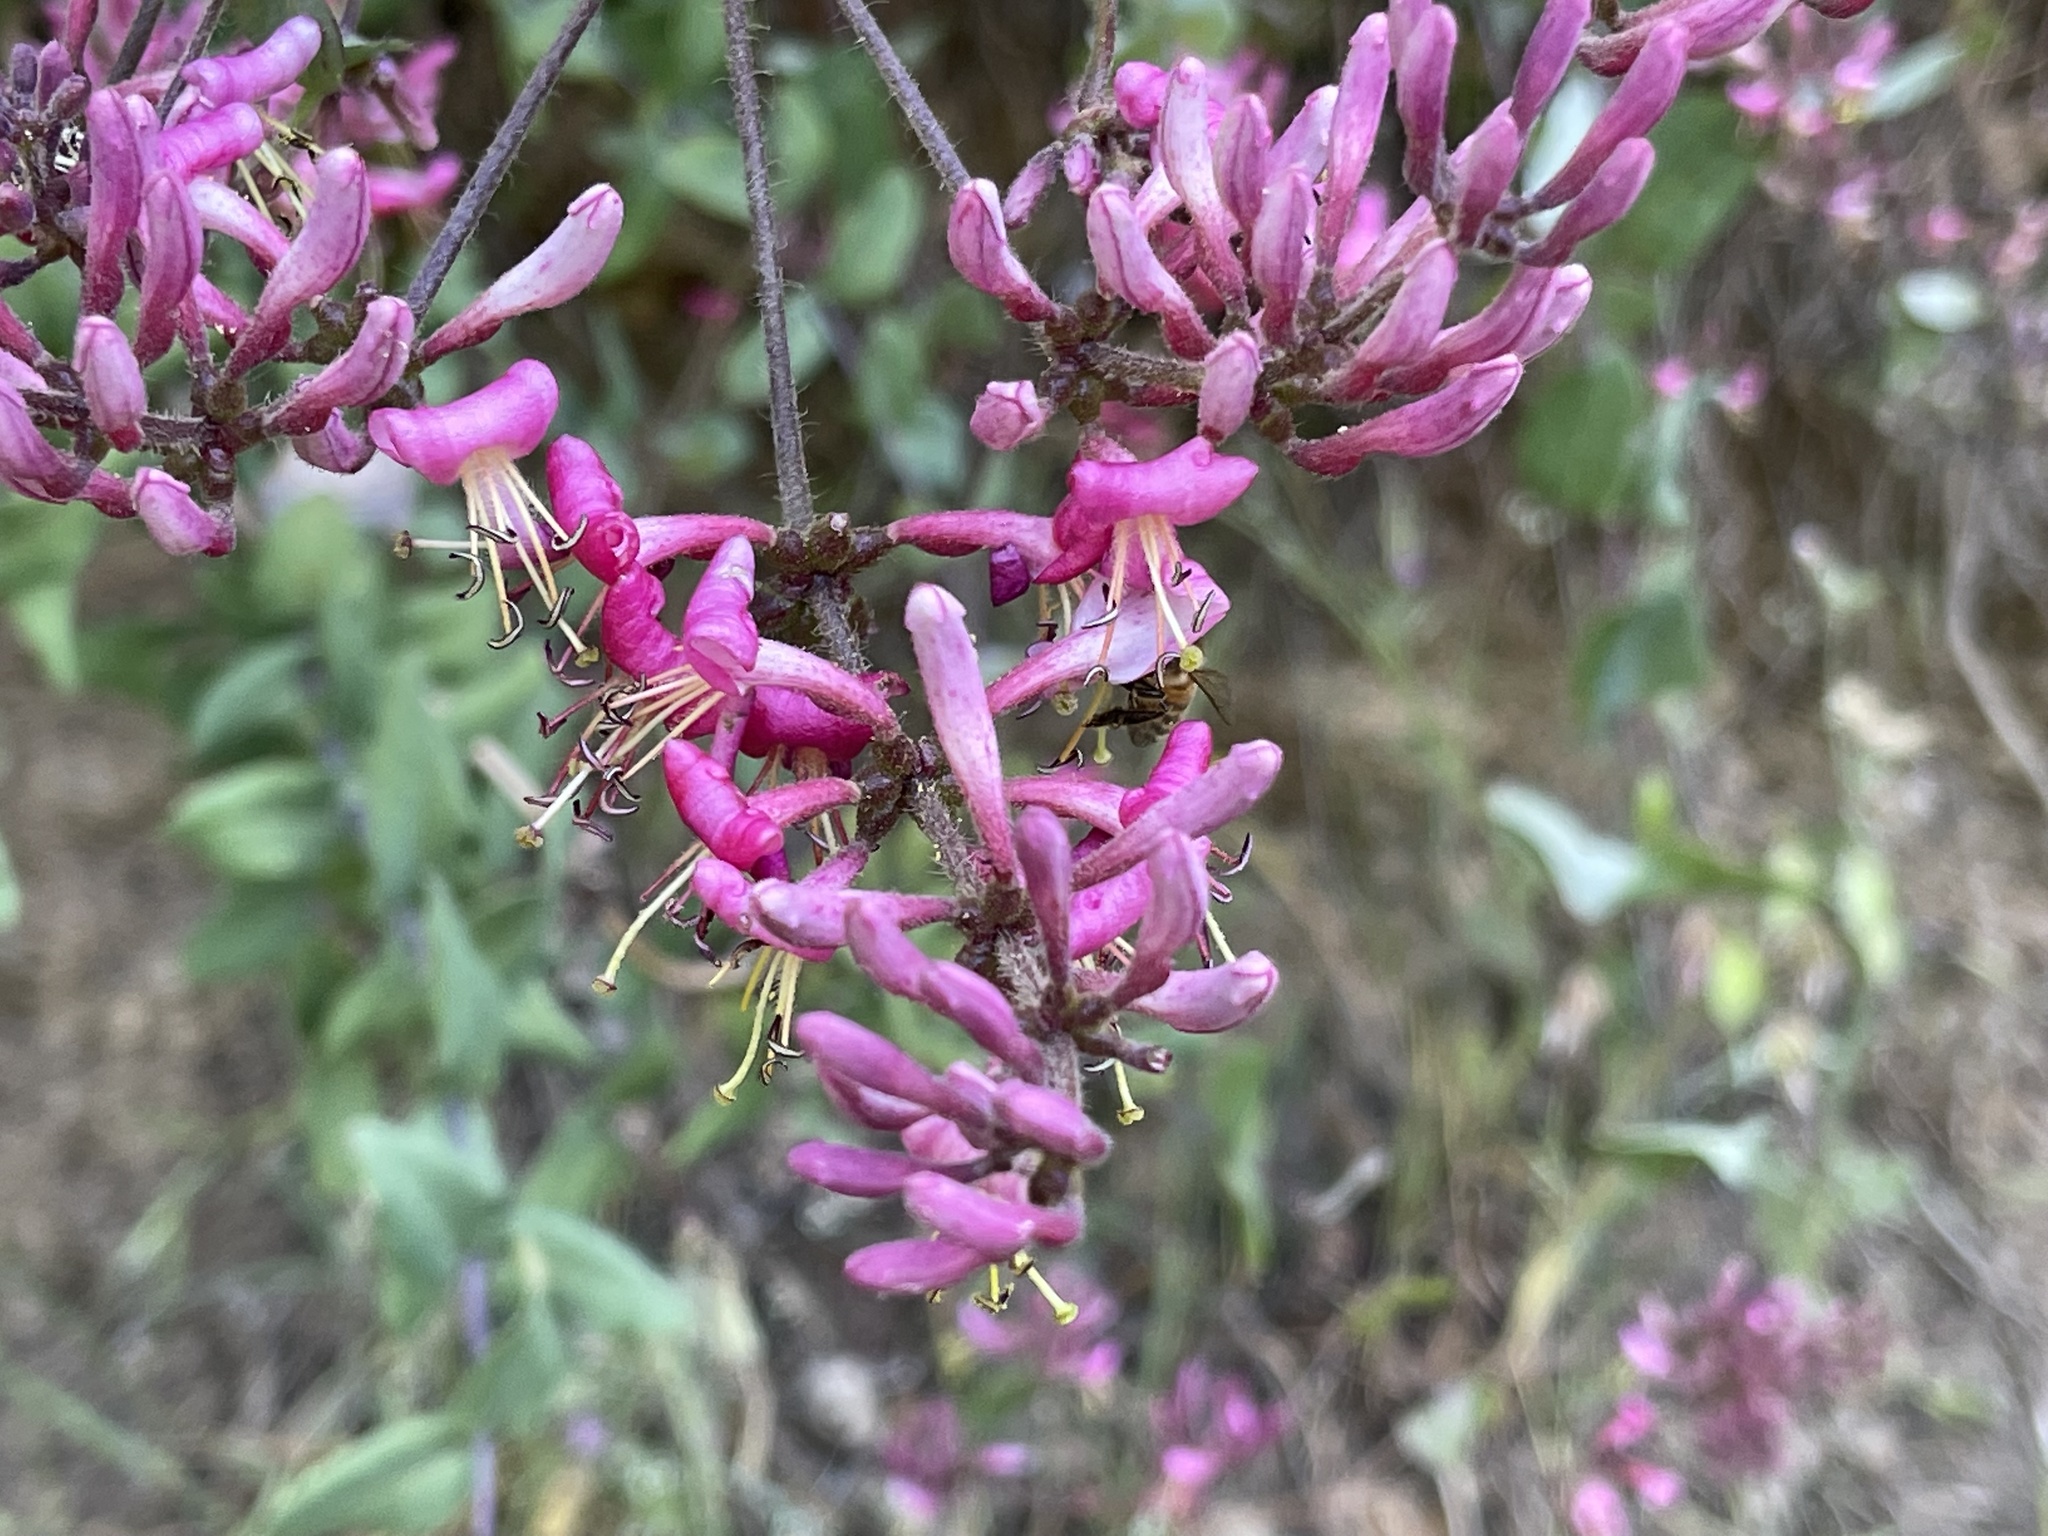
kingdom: Plantae
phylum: Tracheophyta
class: Magnoliopsida
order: Dipsacales
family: Caprifoliaceae
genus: Lonicera
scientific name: Lonicera hispidula
